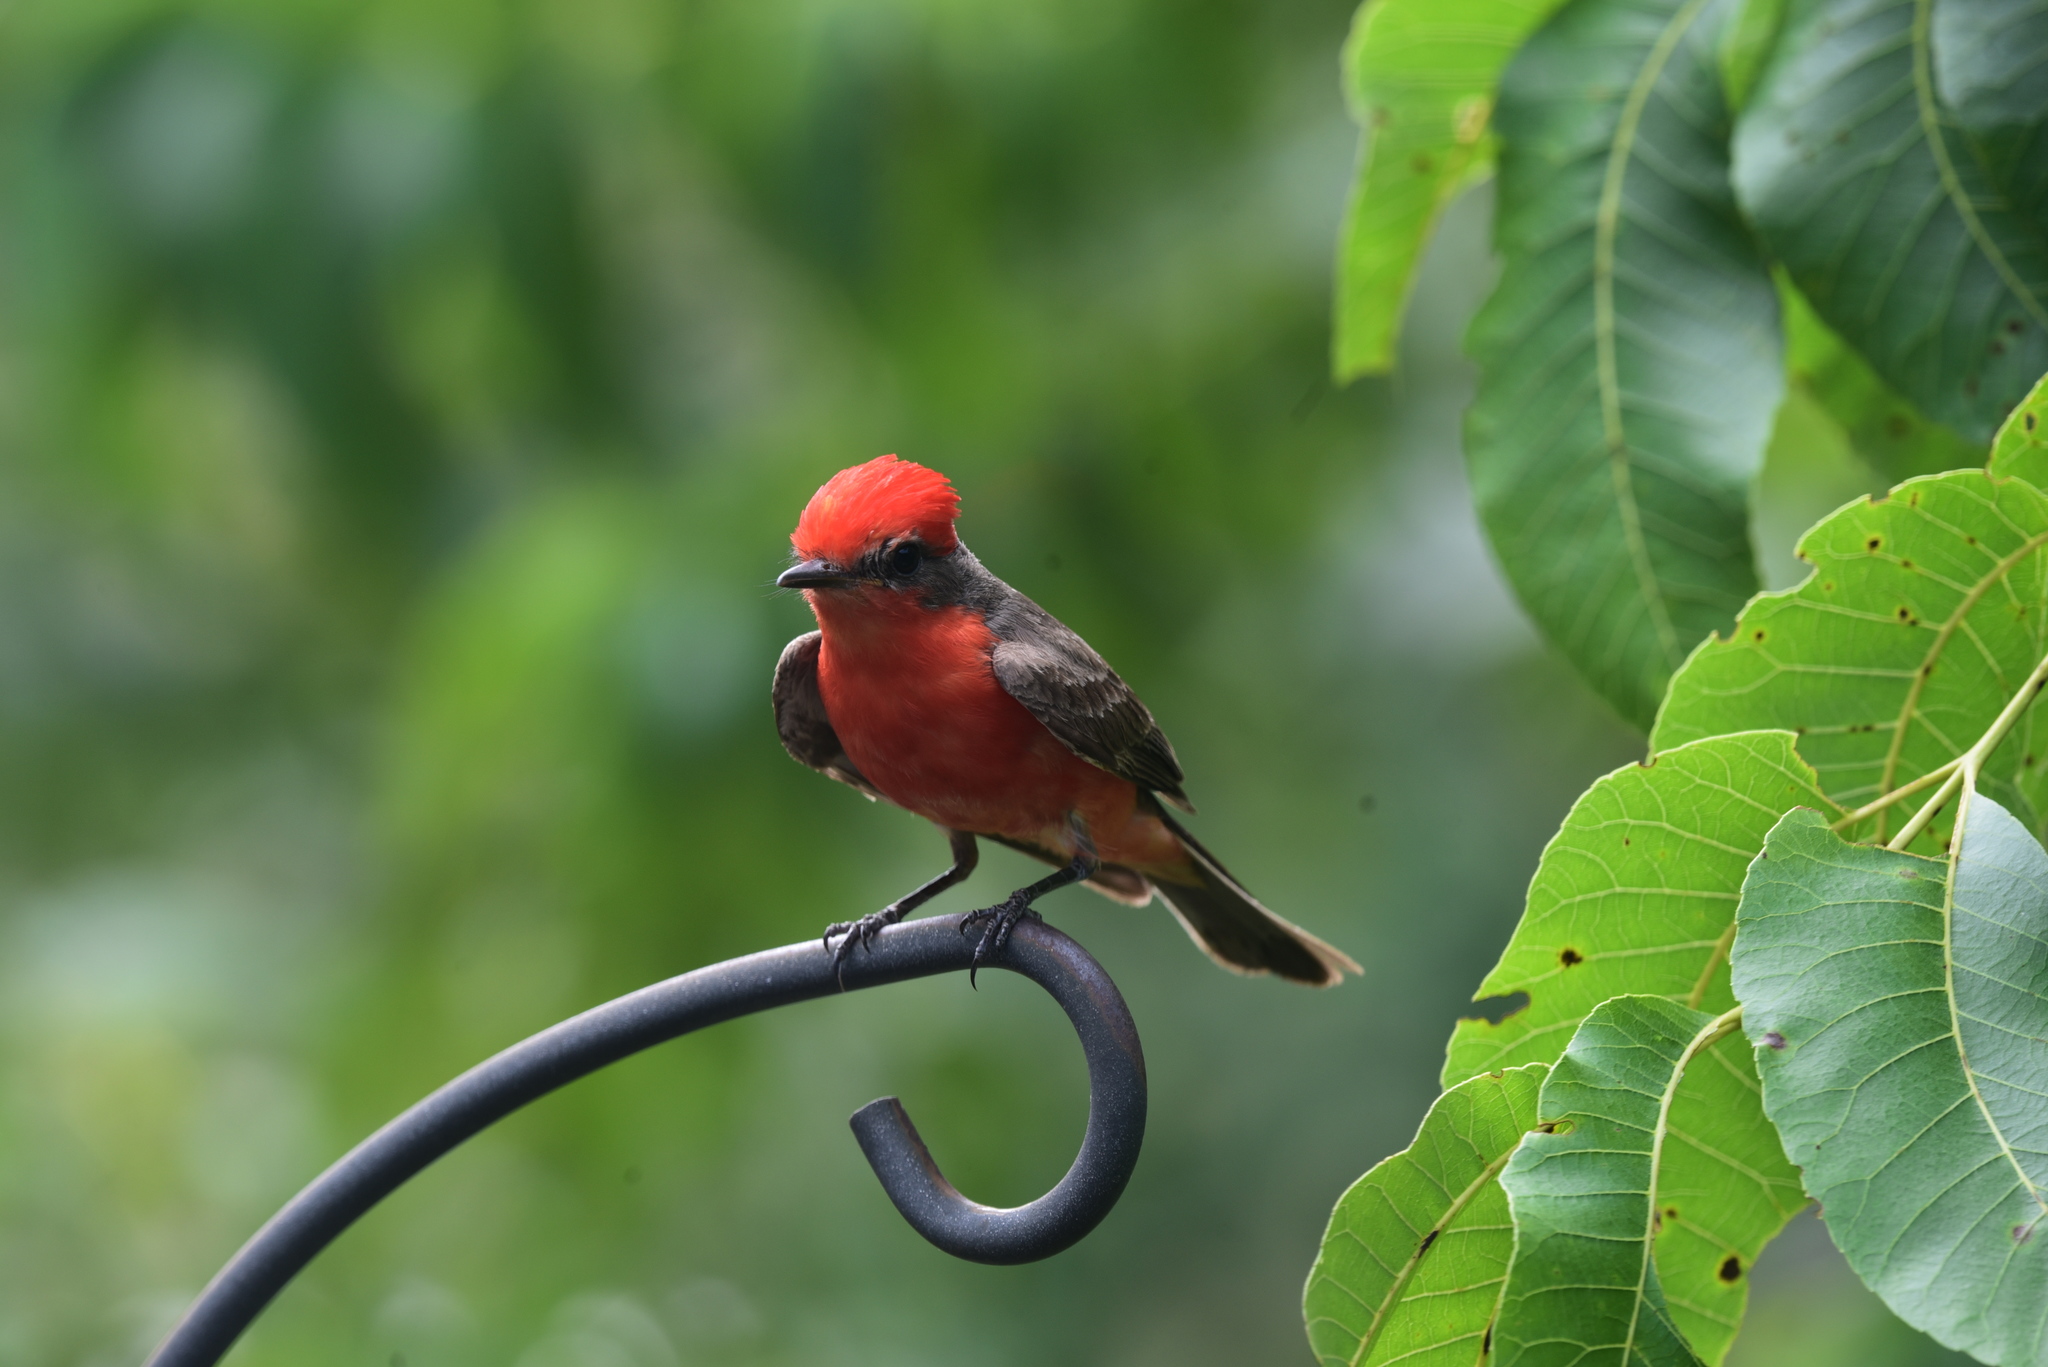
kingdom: Animalia
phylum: Chordata
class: Aves
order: Passeriformes
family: Tyrannidae
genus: Pyrocephalus
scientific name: Pyrocephalus rubinus
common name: Vermilion flycatcher
